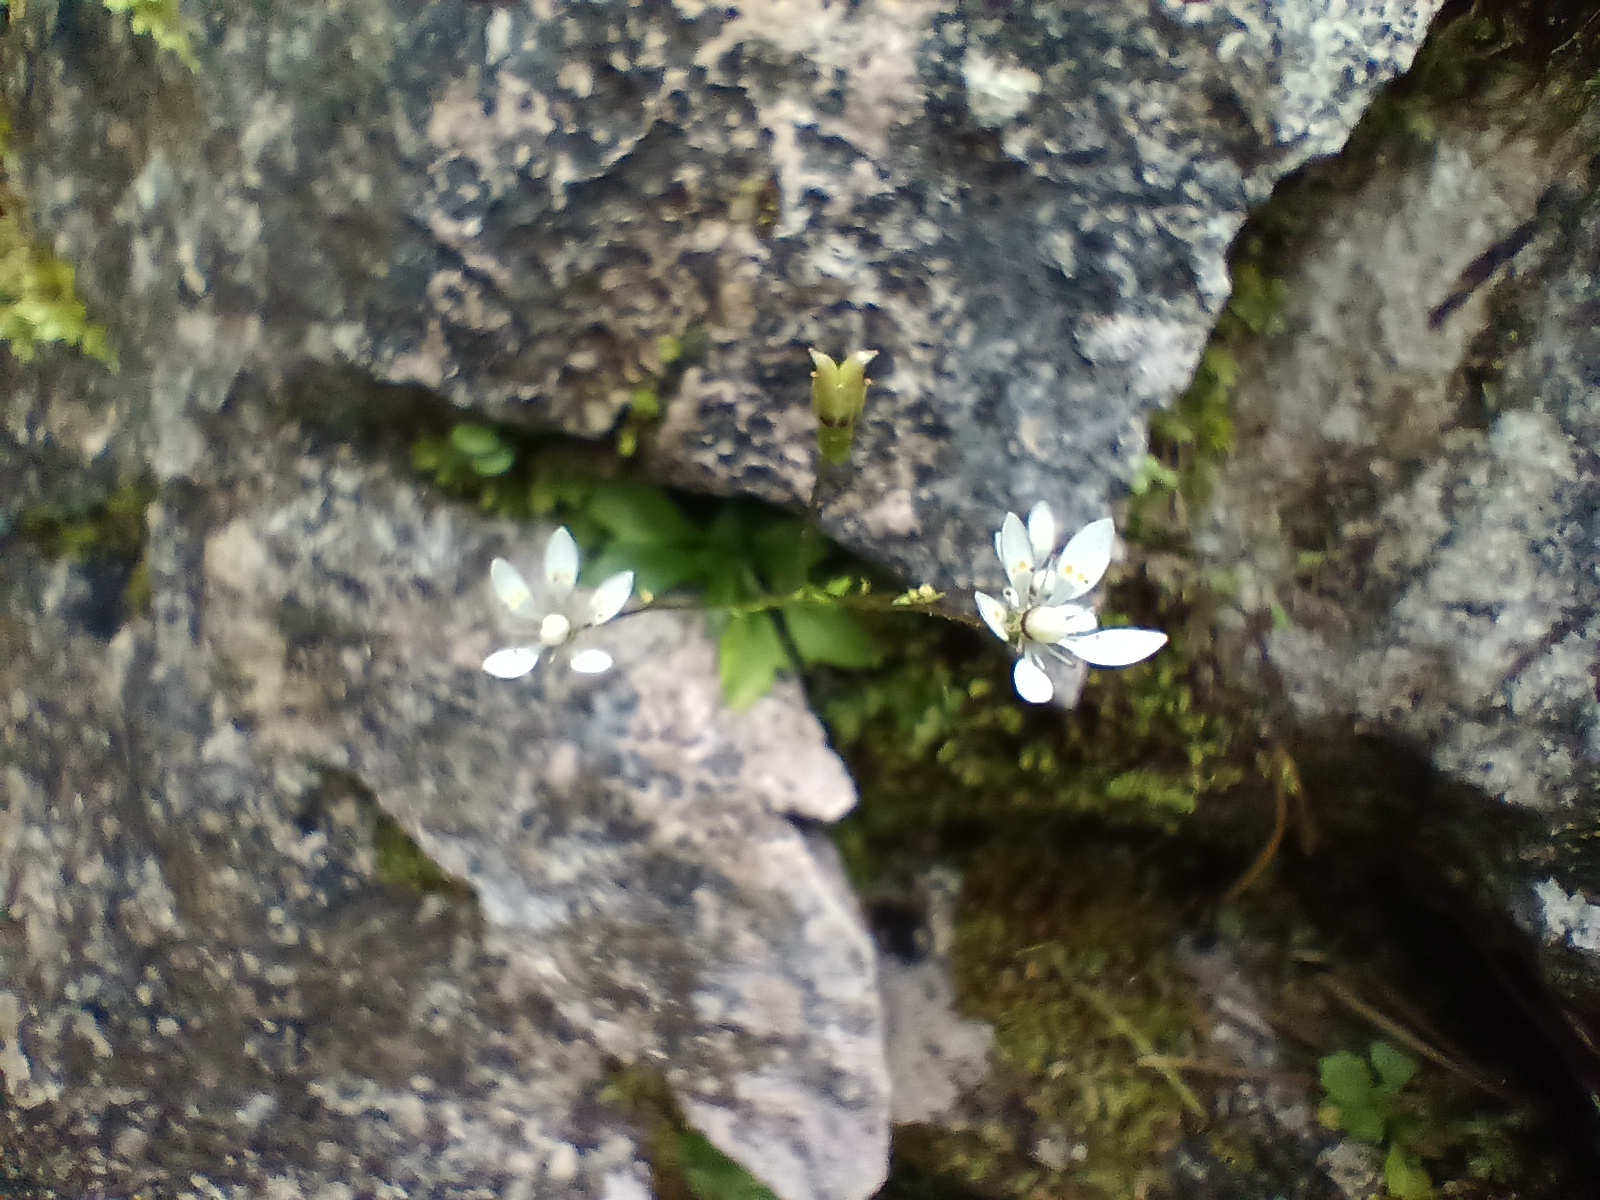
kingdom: Plantae
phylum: Tracheophyta
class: Magnoliopsida
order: Saxifragales
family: Saxifragaceae
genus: Micranthes
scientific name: Micranthes stellaris
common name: Starry saxifrage
